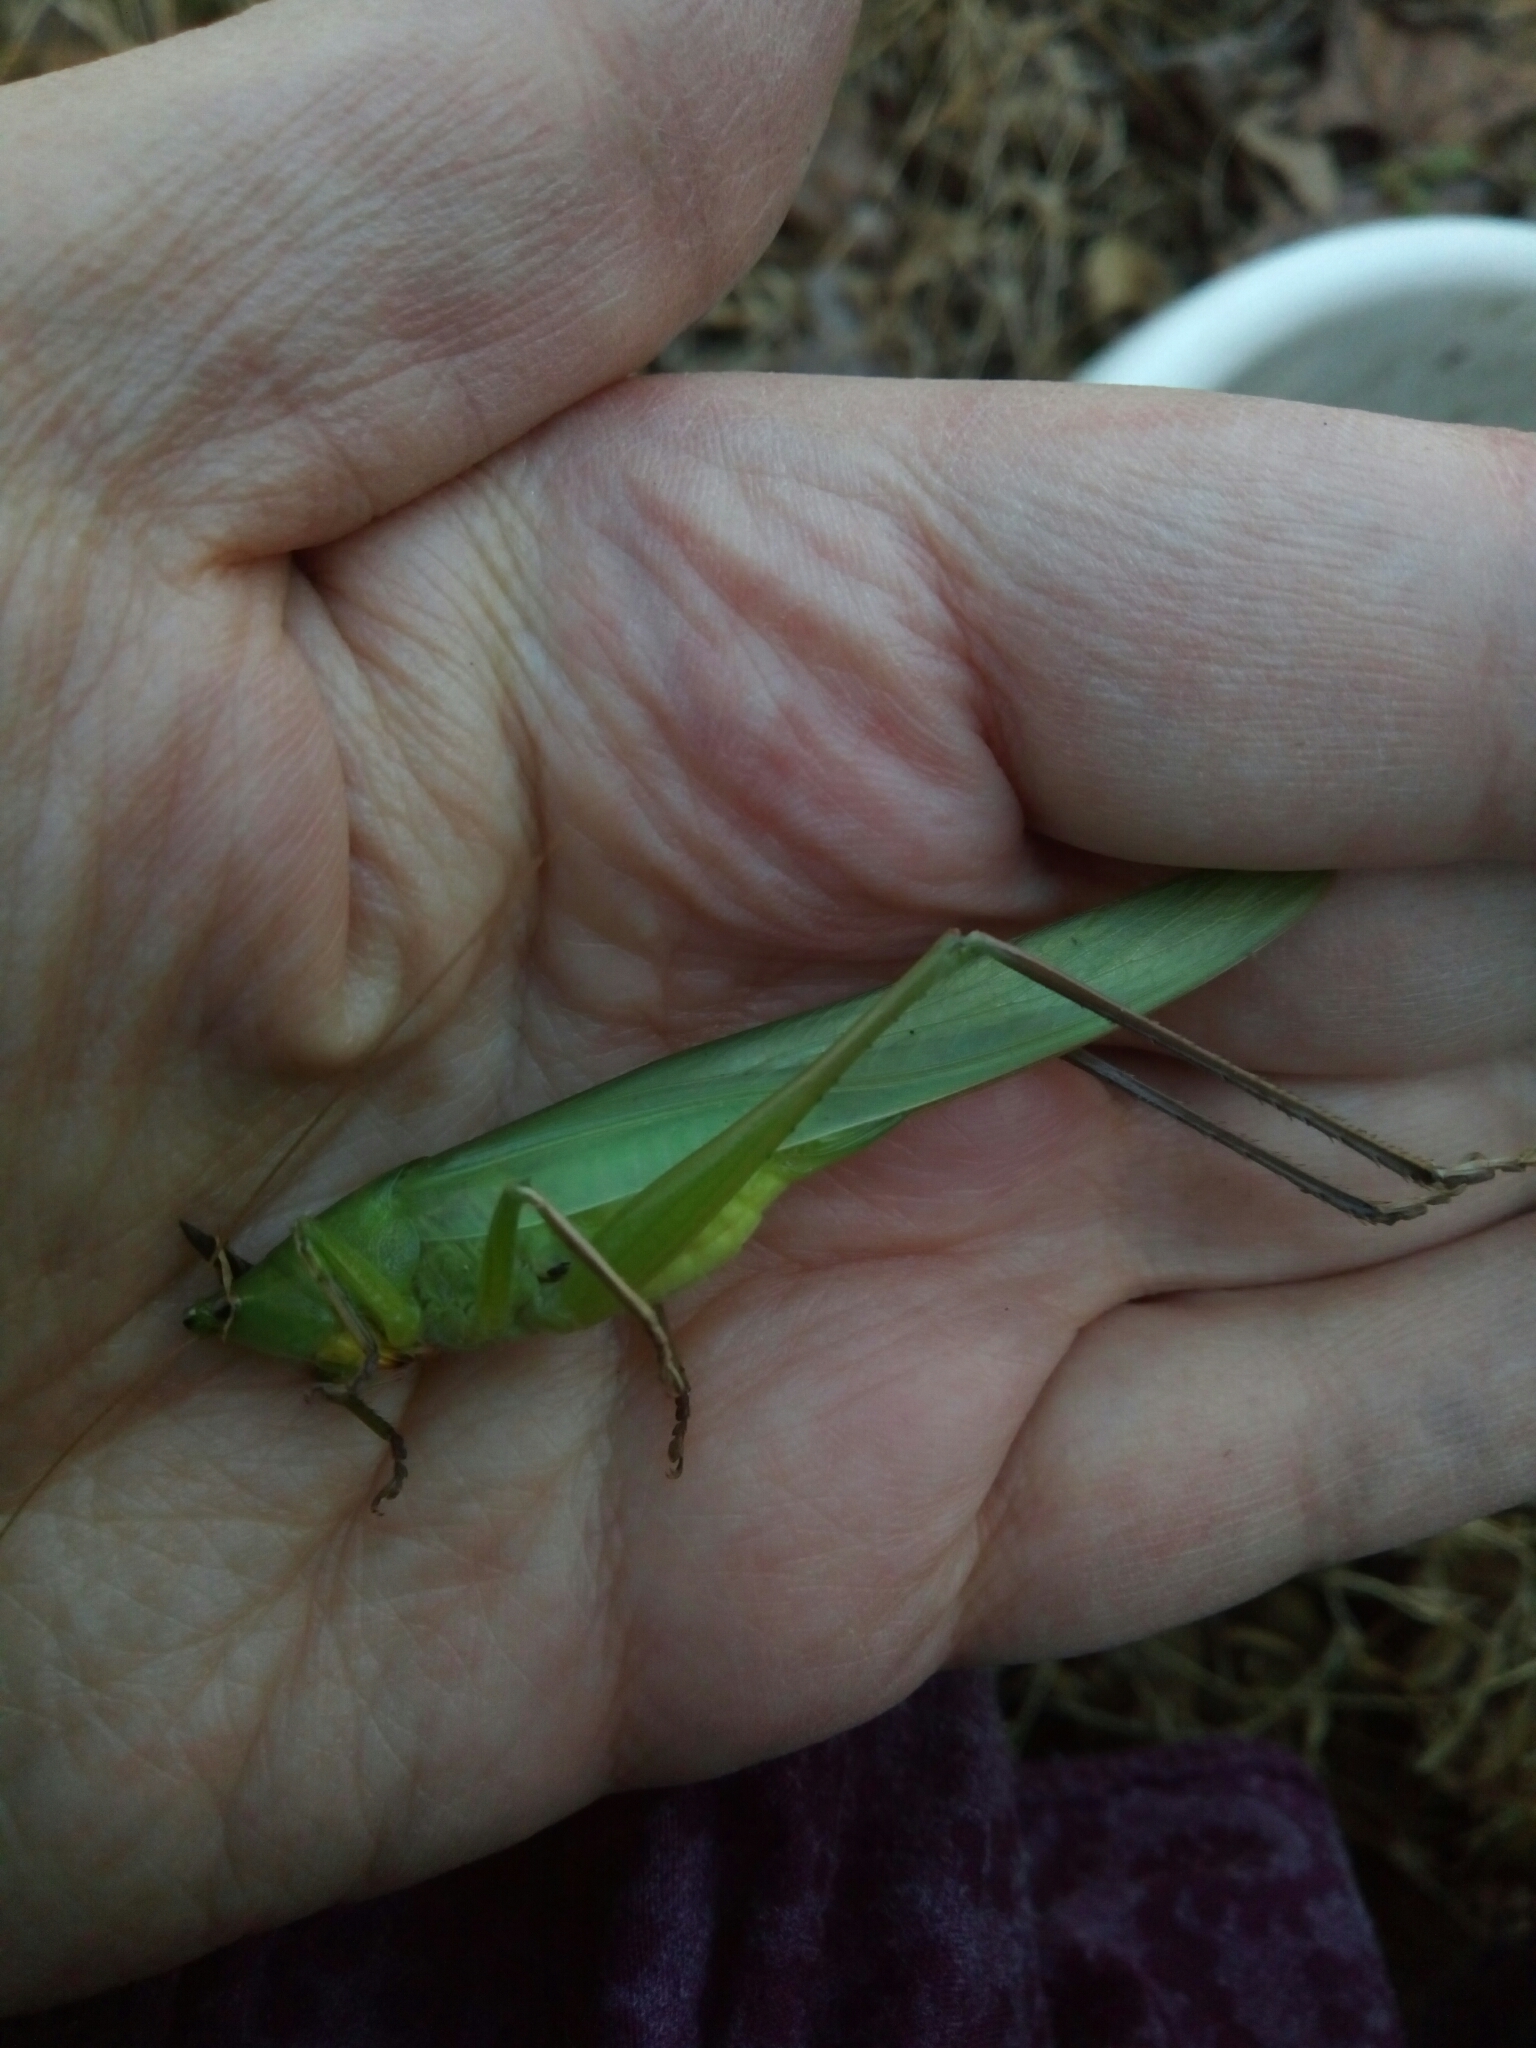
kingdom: Animalia
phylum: Arthropoda
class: Insecta
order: Orthoptera
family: Tettigoniidae
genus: Neoconocephalus
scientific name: Neoconocephalus triops
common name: Broad-tipped conehead
